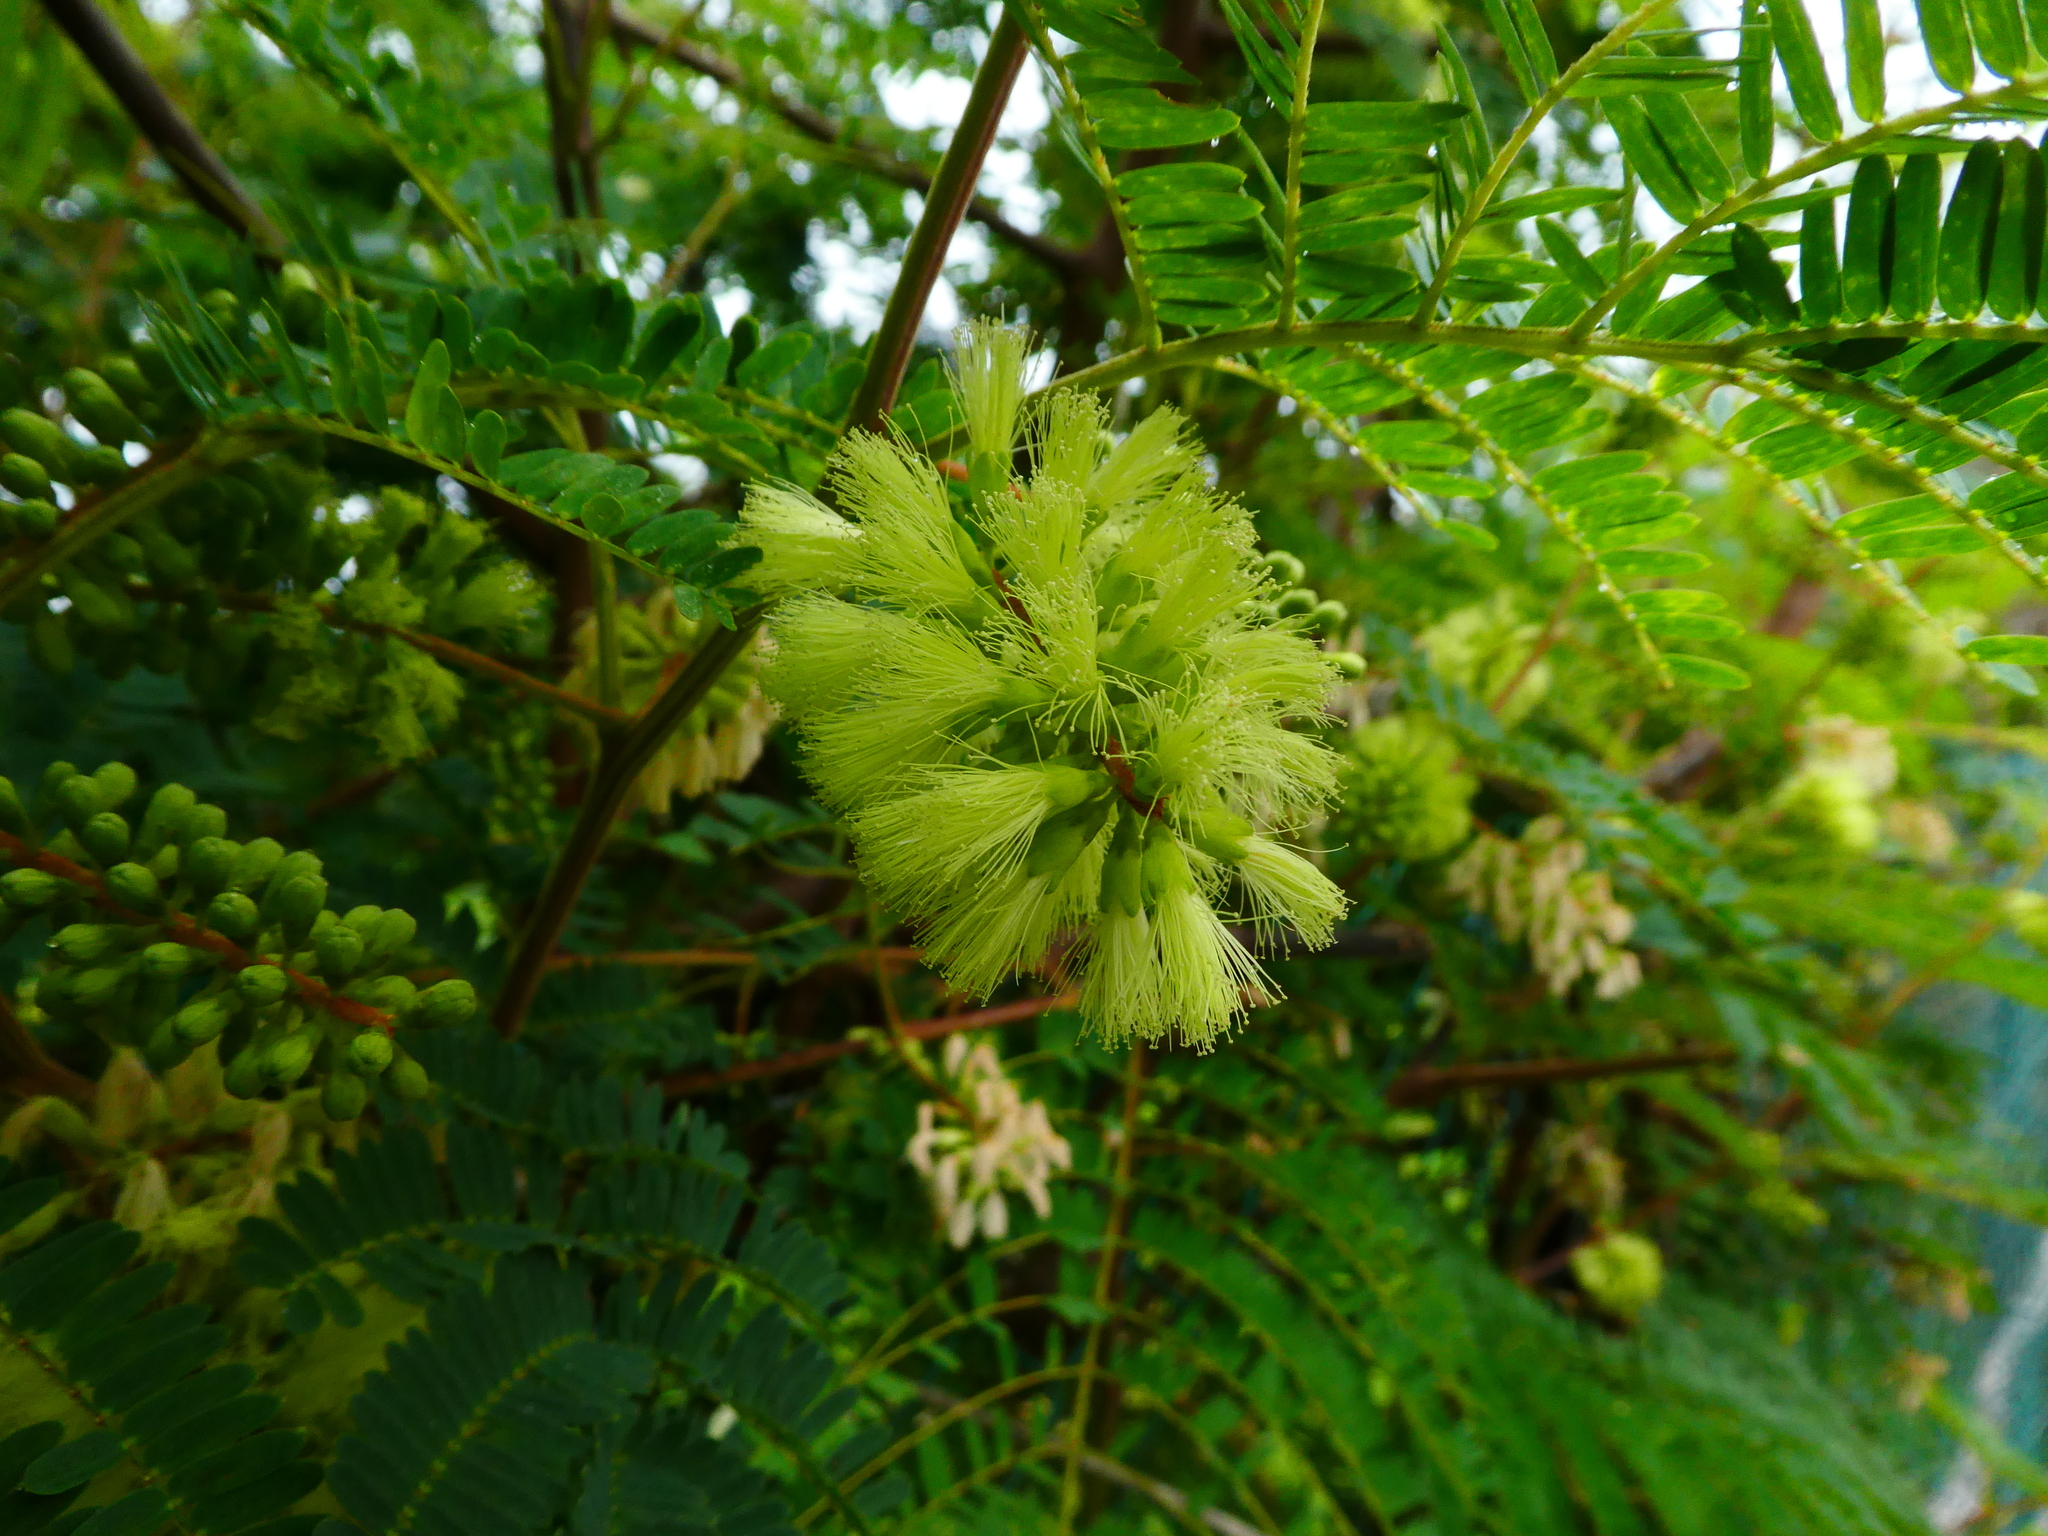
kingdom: Plantae
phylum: Tracheophyta
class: Magnoliopsida
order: Fabales
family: Fabaceae
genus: Paraserianthes
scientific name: Paraserianthes lophantha
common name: Plume albizia
